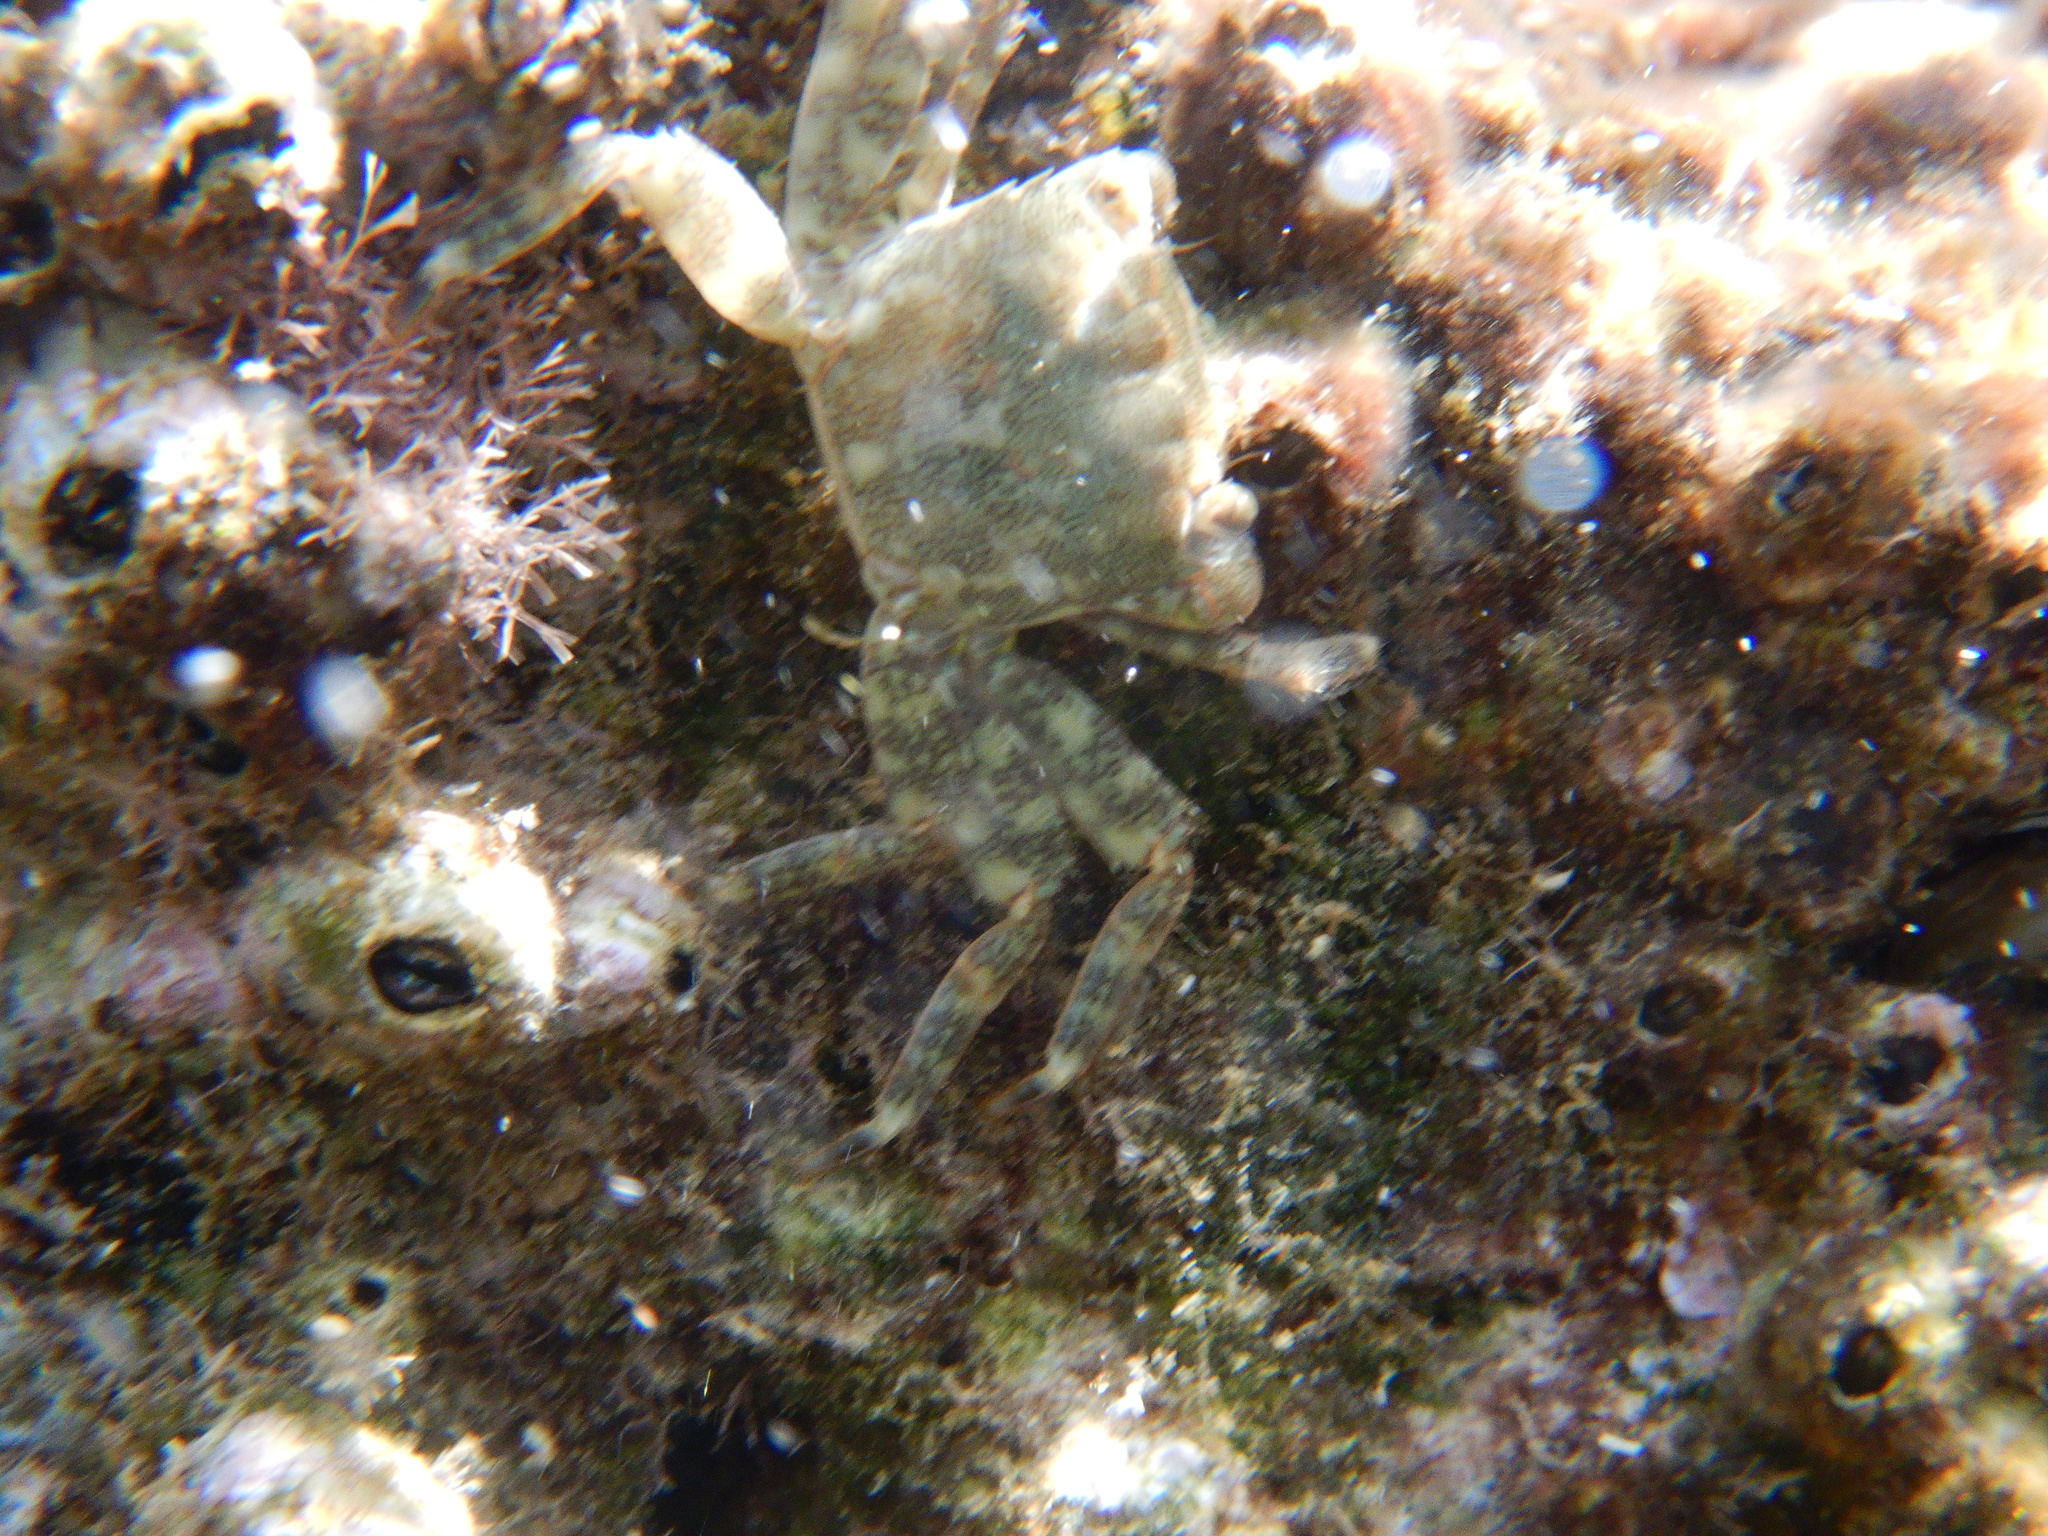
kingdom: Animalia
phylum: Arthropoda
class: Malacostraca
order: Decapoda
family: Grapsidae
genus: Pachygrapsus
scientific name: Pachygrapsus marmoratus
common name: Marbled rock crab
